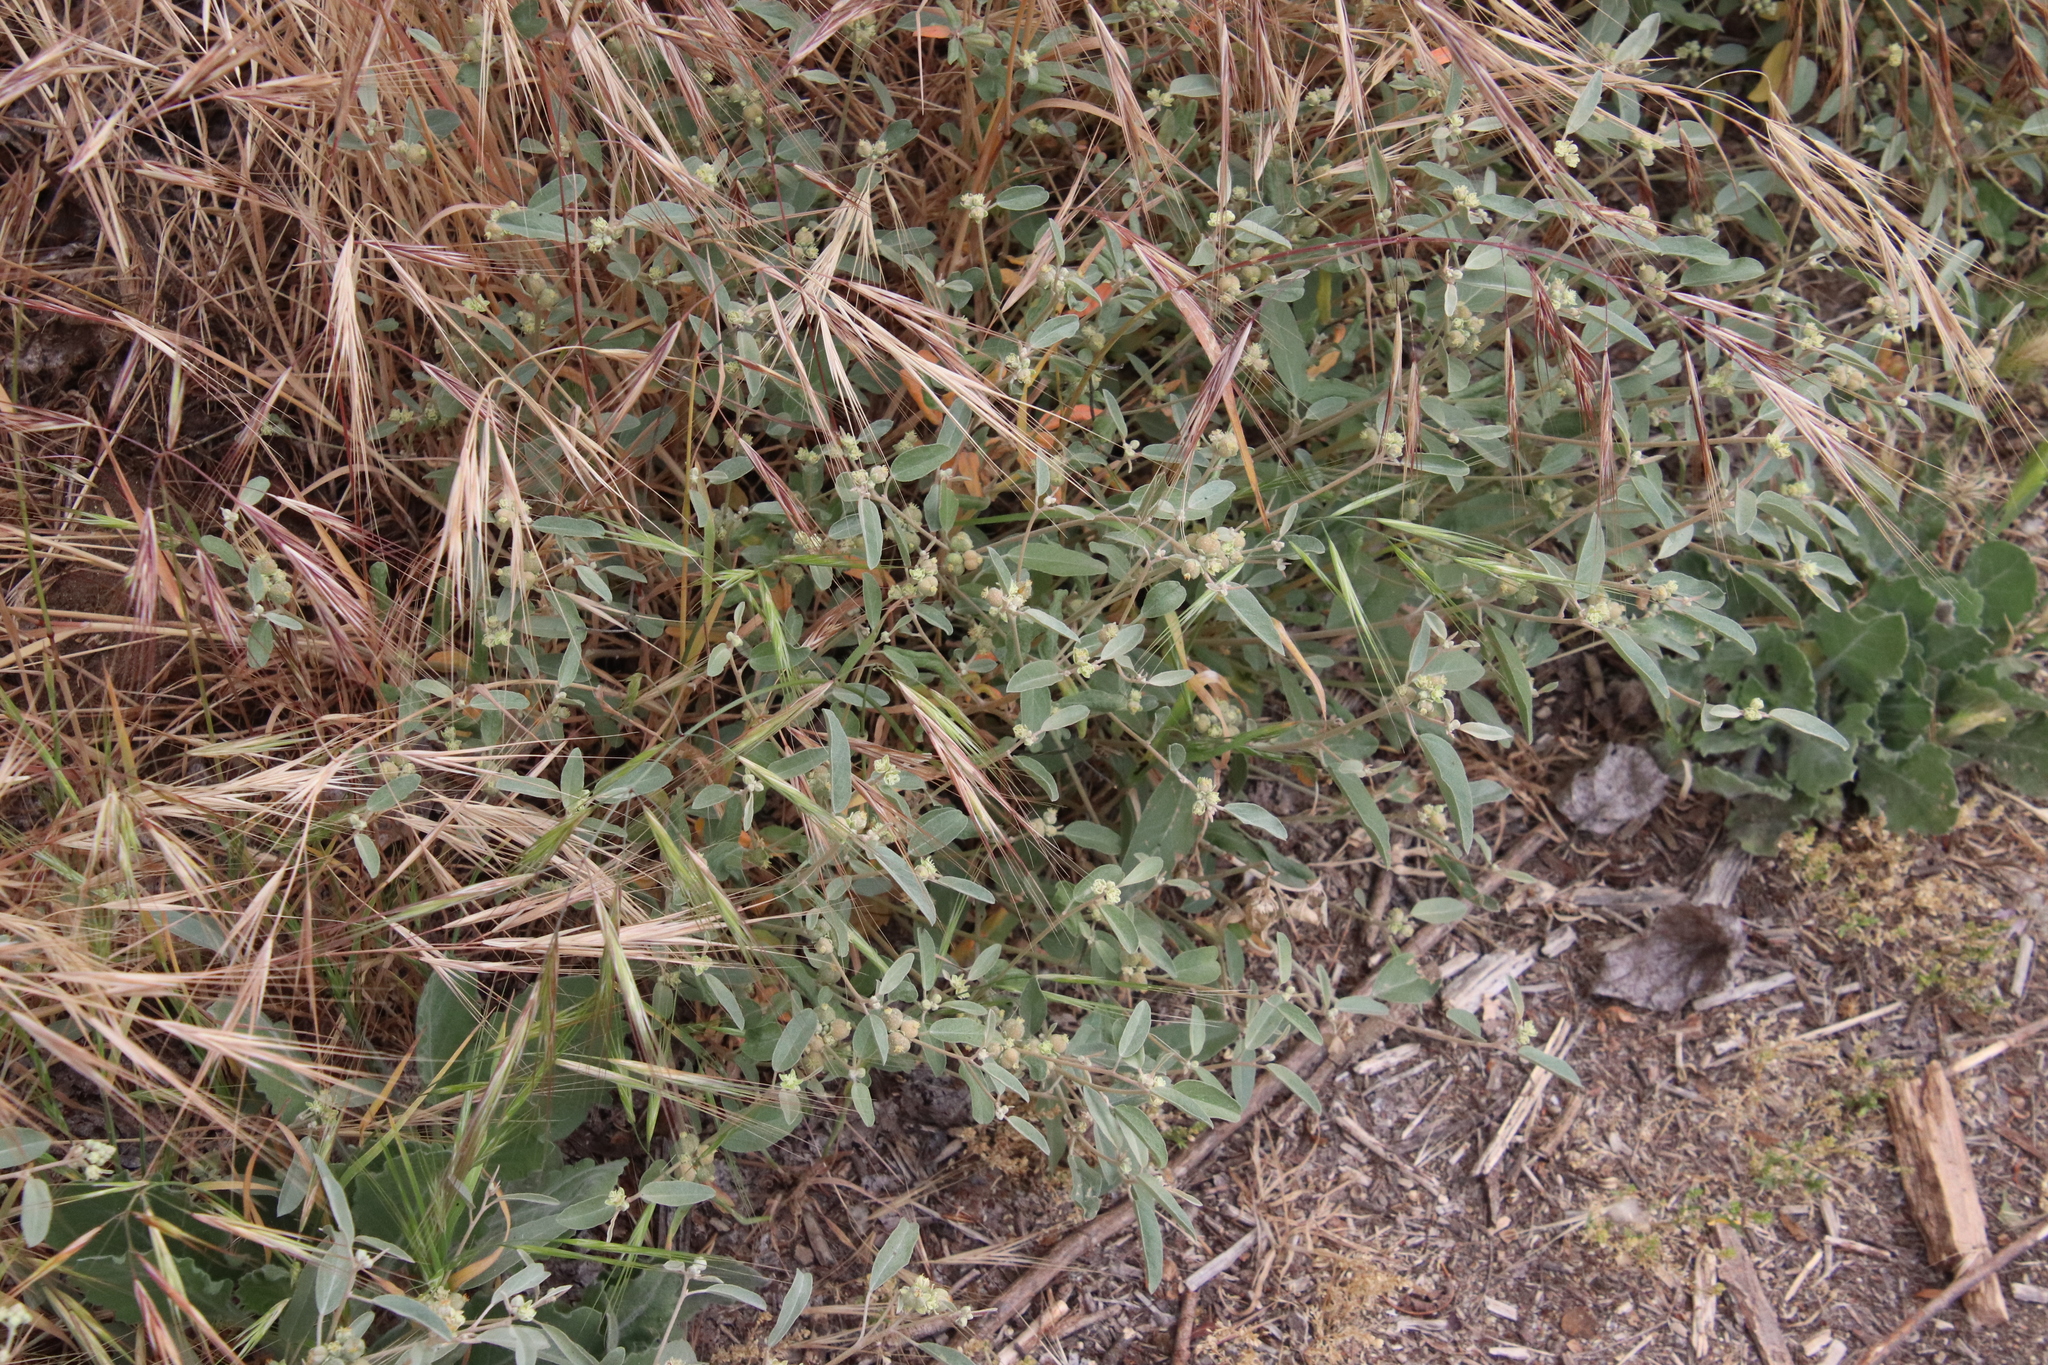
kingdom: Plantae
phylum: Tracheophyta
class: Magnoliopsida
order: Malpighiales
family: Euphorbiaceae
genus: Croton
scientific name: Croton californicus
